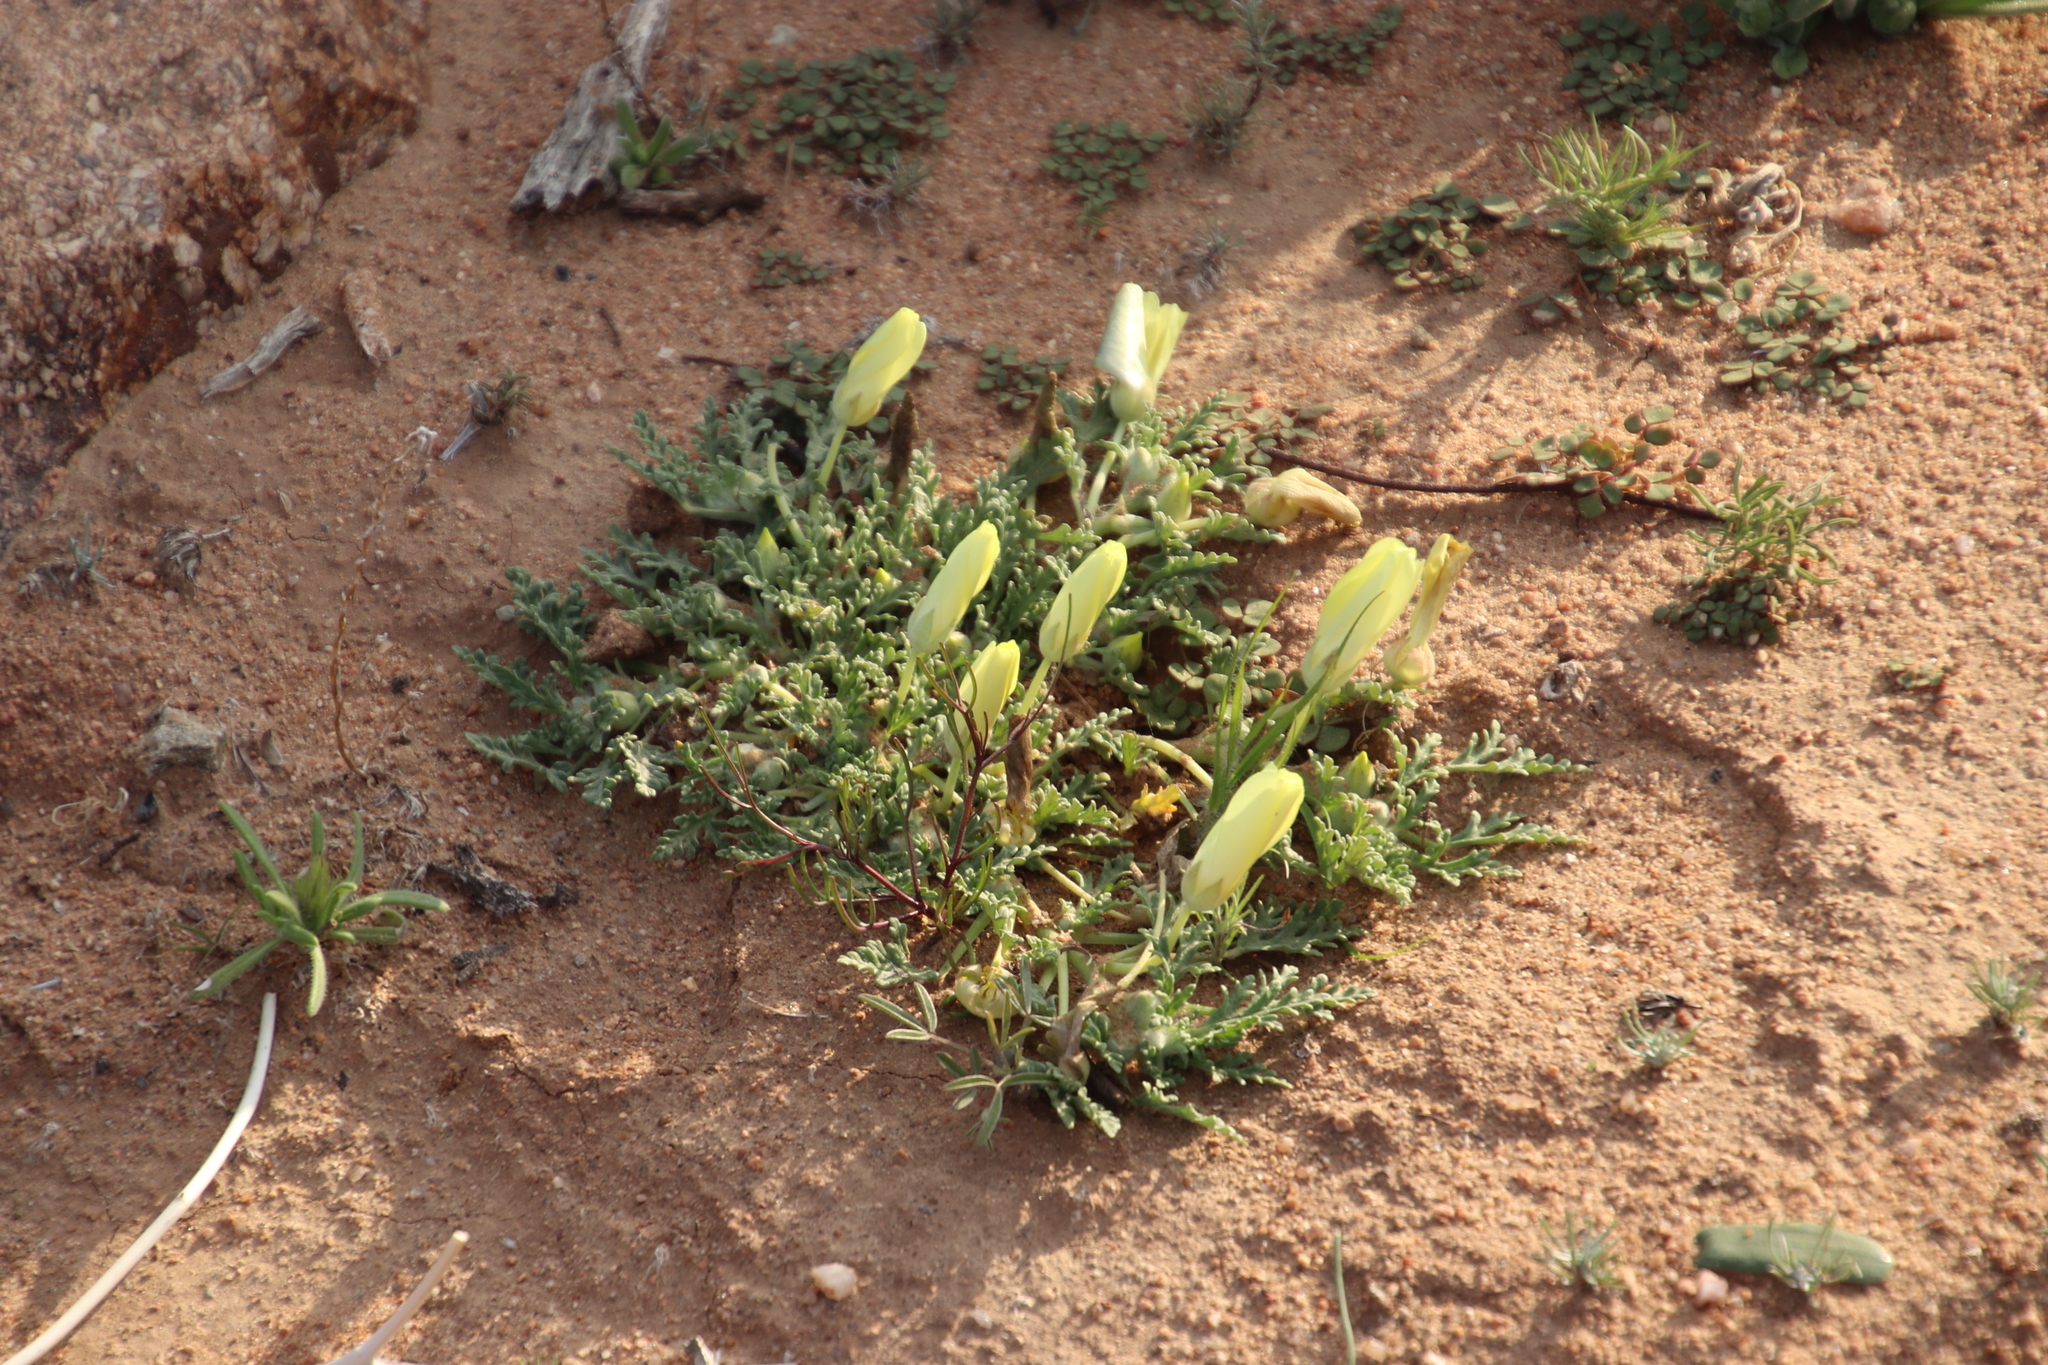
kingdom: Plantae
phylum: Tracheophyta
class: Magnoliopsida
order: Malvales
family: Neuradaceae
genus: Grielum
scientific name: Grielum humifusum
